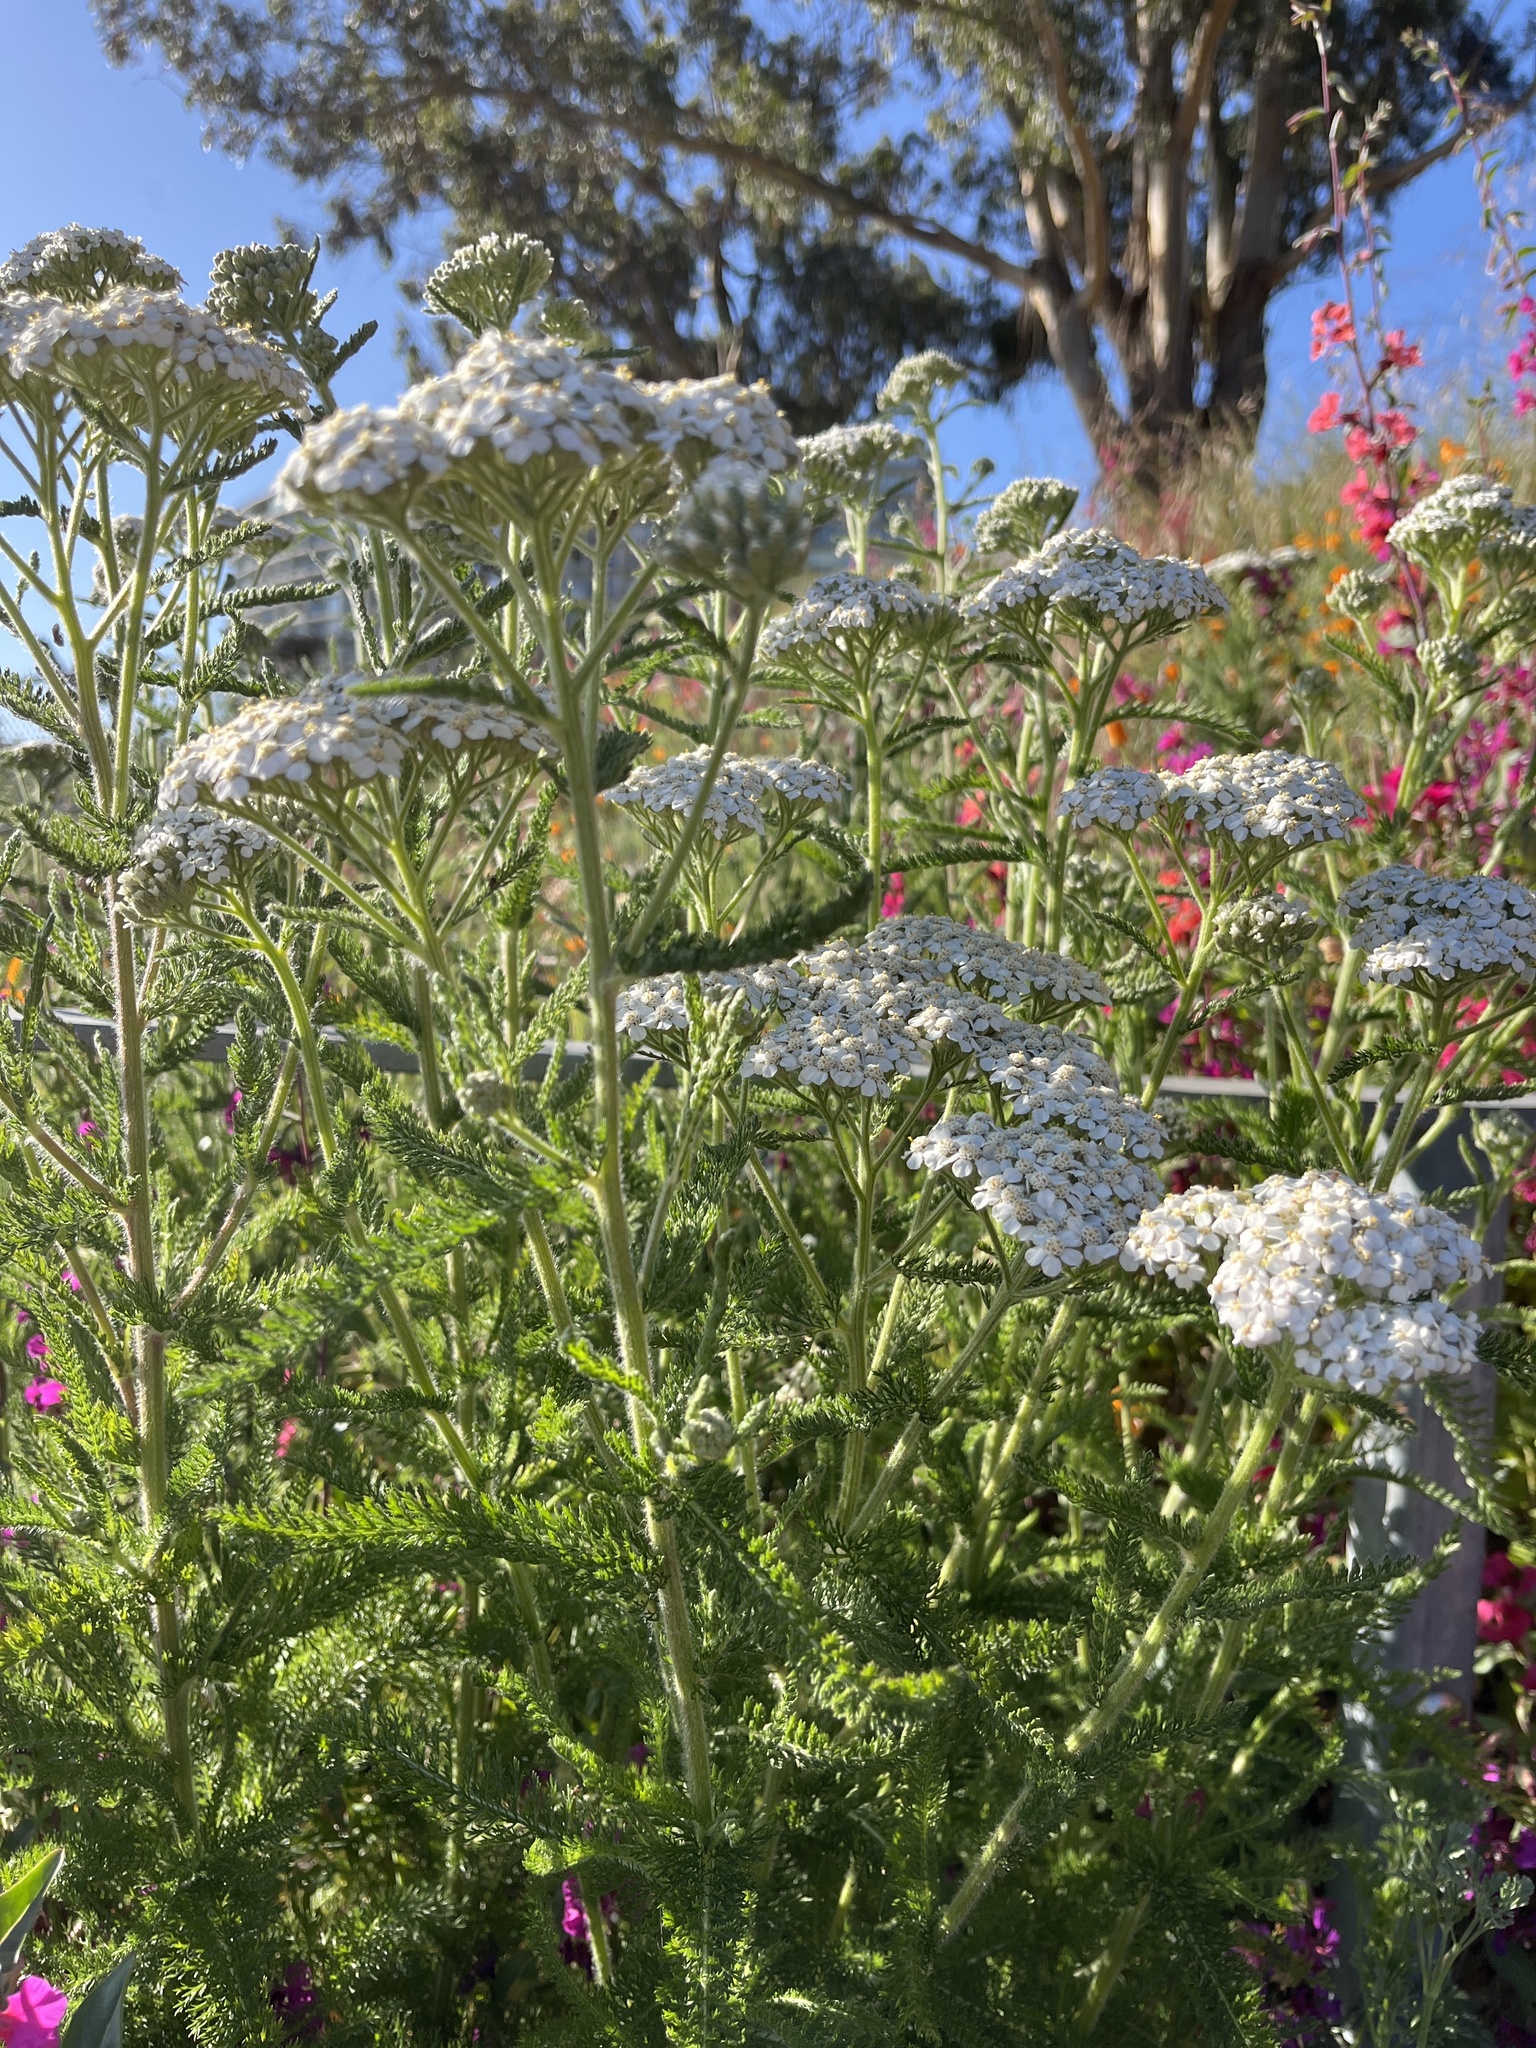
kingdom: Plantae
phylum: Tracheophyta
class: Magnoliopsida
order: Asterales
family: Asteraceae
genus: Achillea
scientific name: Achillea millefolium
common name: Yarrow
